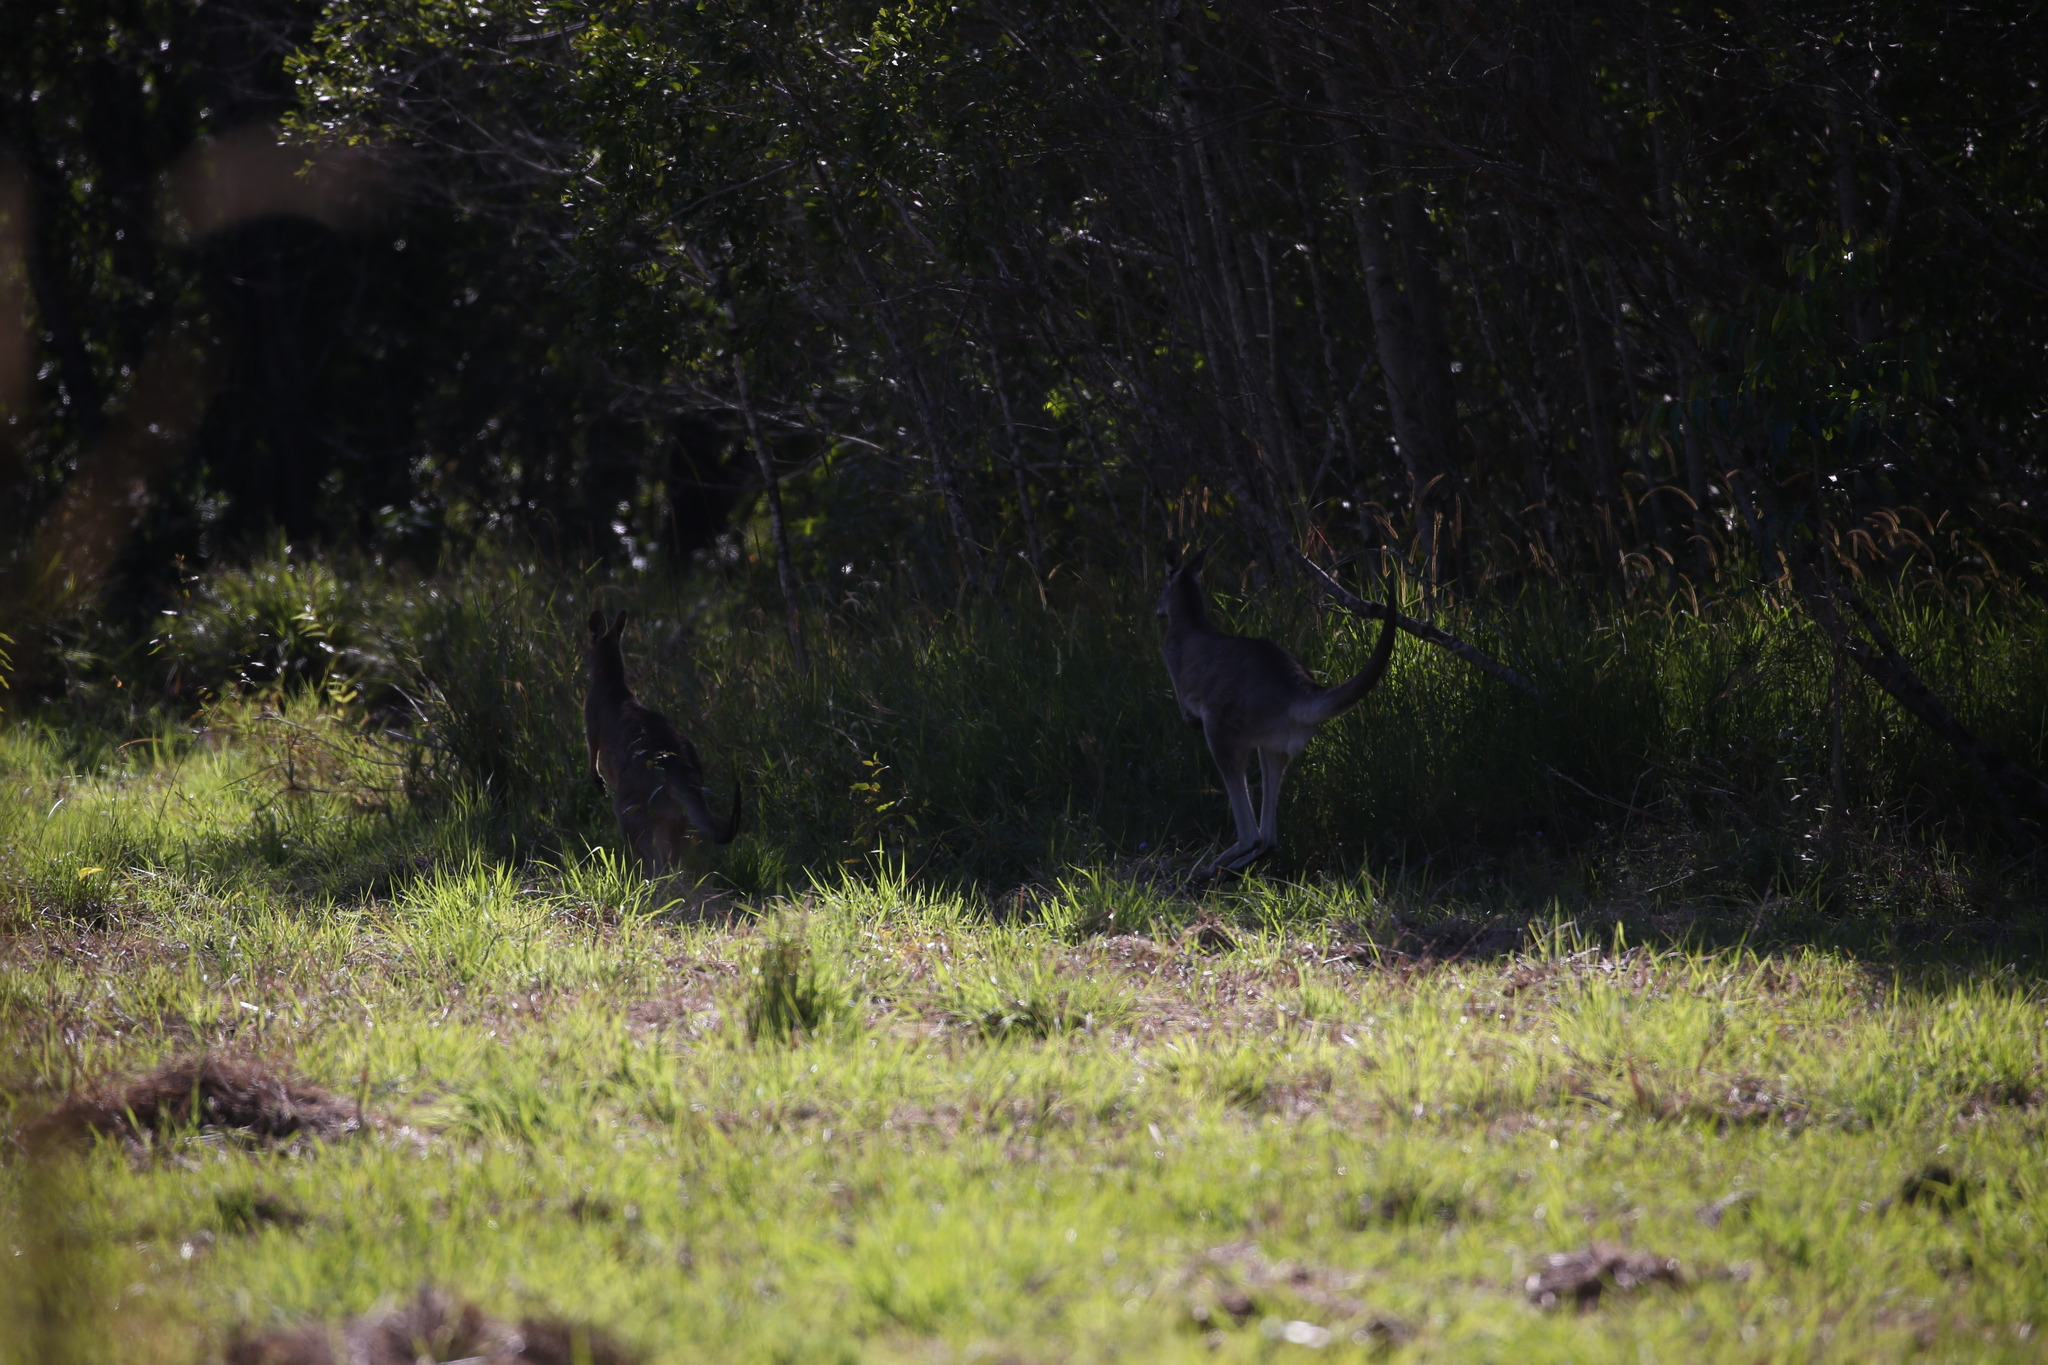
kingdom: Animalia
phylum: Chordata
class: Mammalia
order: Diprotodontia
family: Macropodidae
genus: Macropus
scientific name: Macropus giganteus
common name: Eastern grey kangaroo
